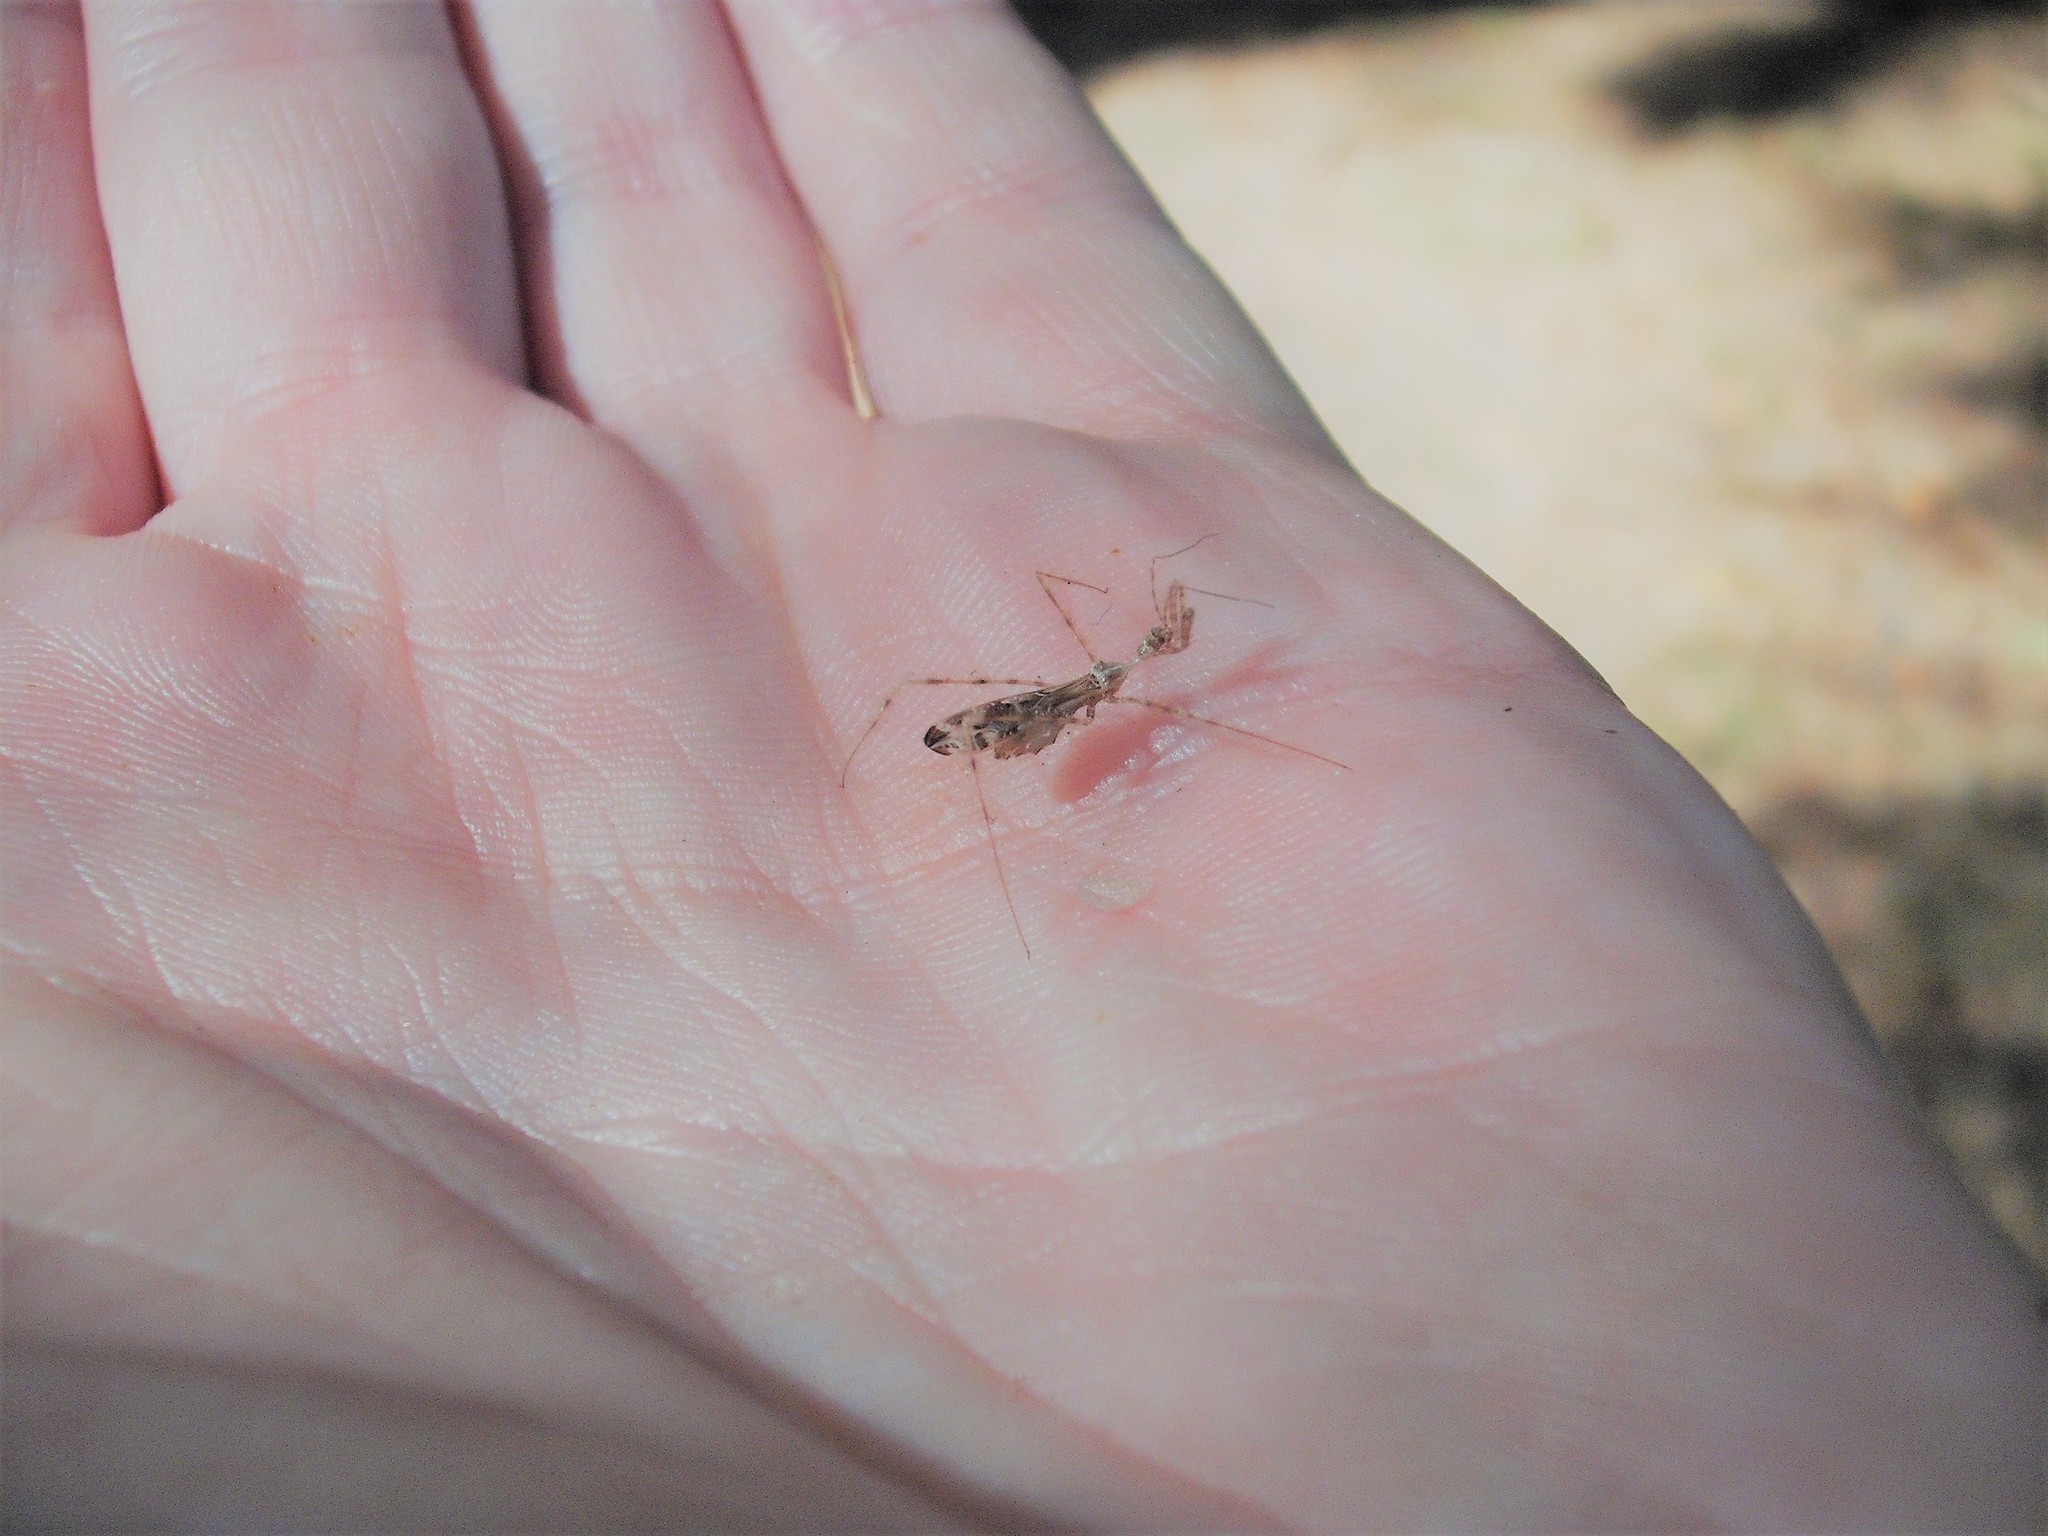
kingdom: Animalia
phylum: Arthropoda
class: Insecta
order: Hemiptera
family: Reduviidae
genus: Stenolemus
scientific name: Stenolemus fraterculus
